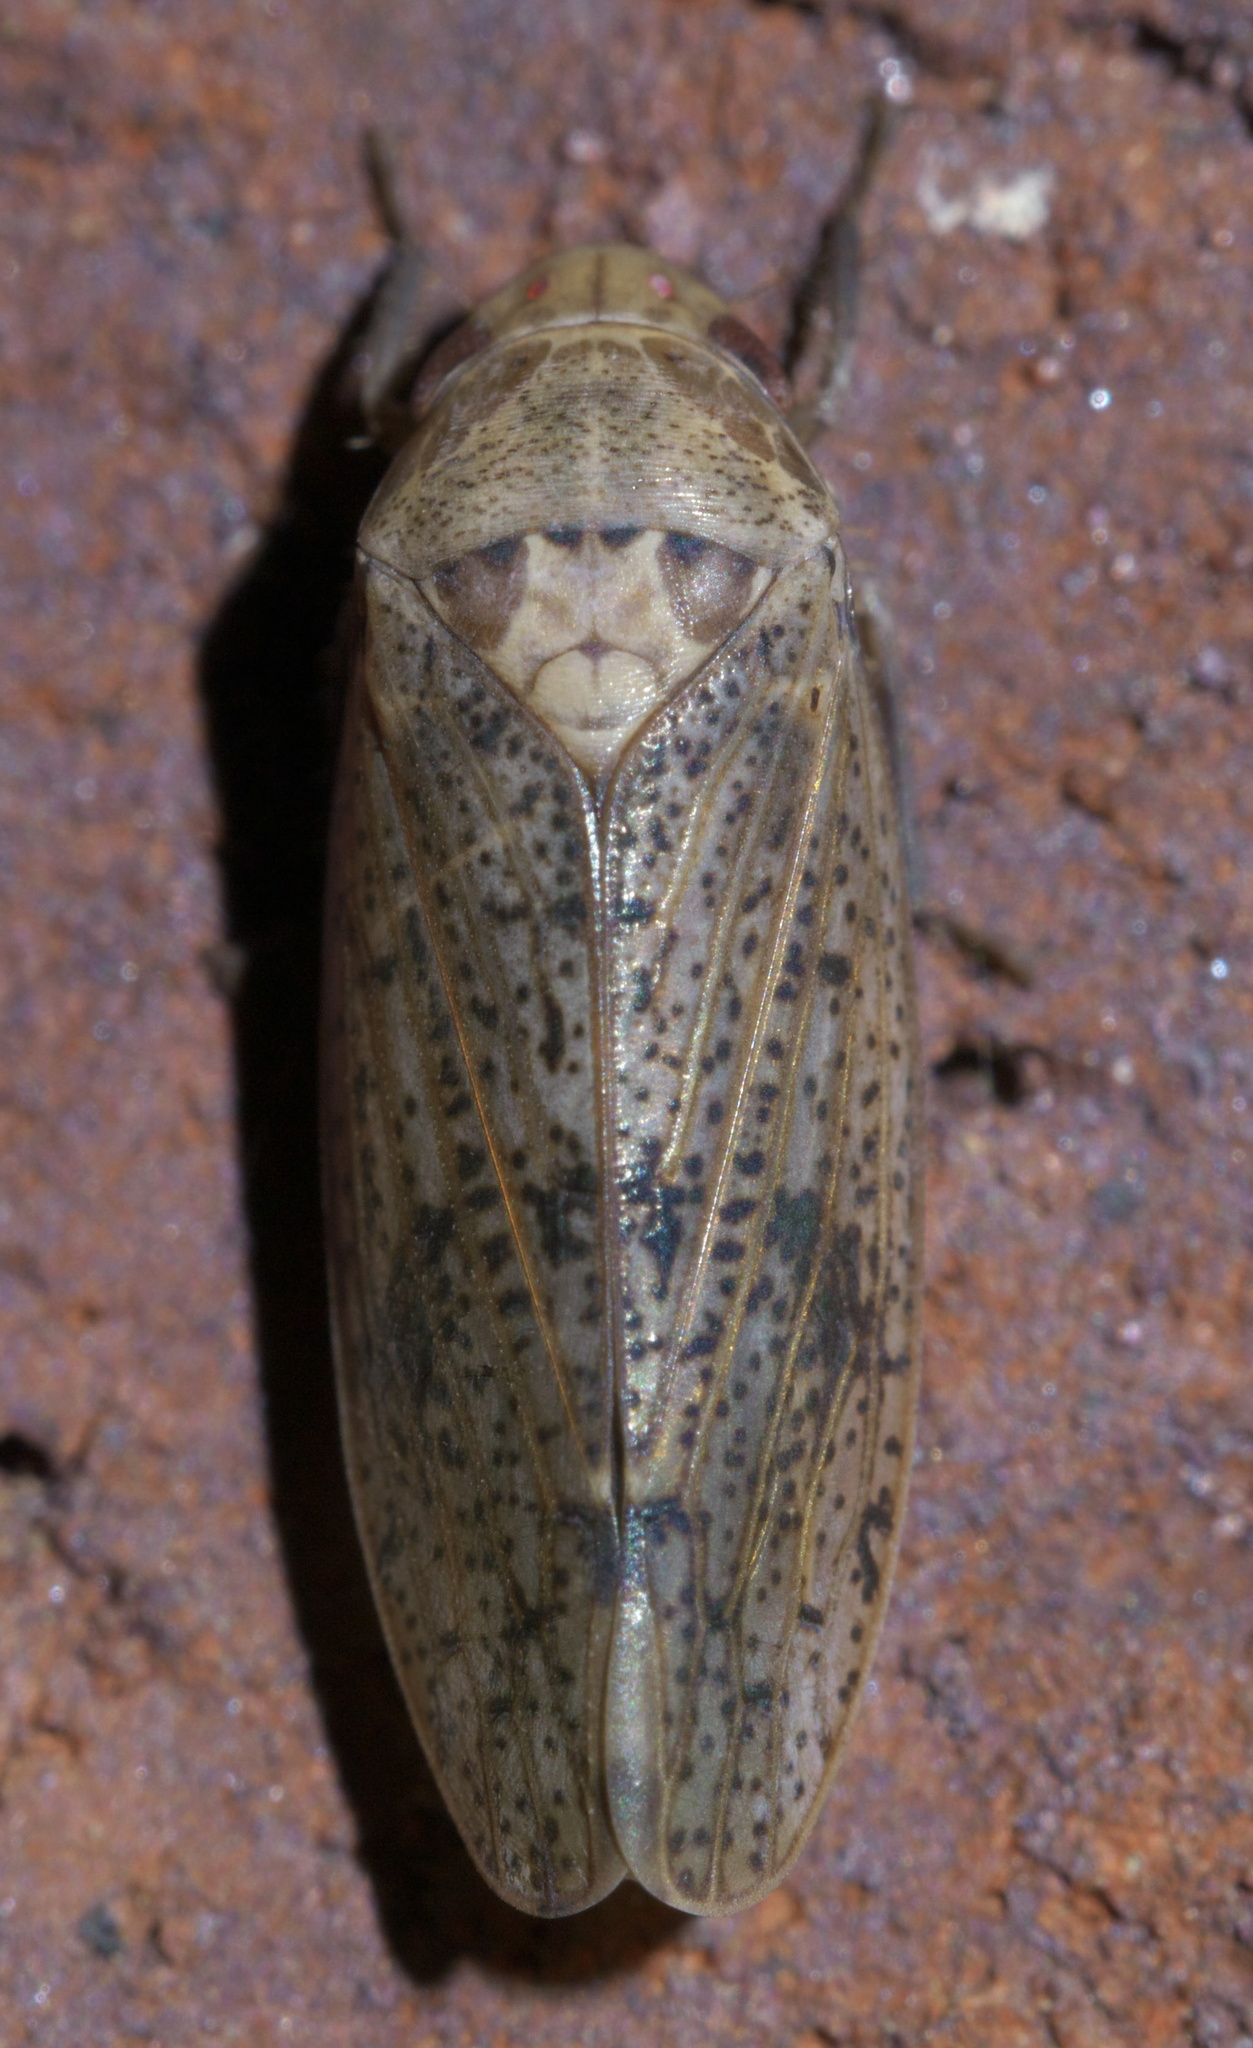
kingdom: Animalia
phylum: Arthropoda
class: Insecta
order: Hemiptera
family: Cicadellidae
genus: Ponana
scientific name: Ponana puncticollis
